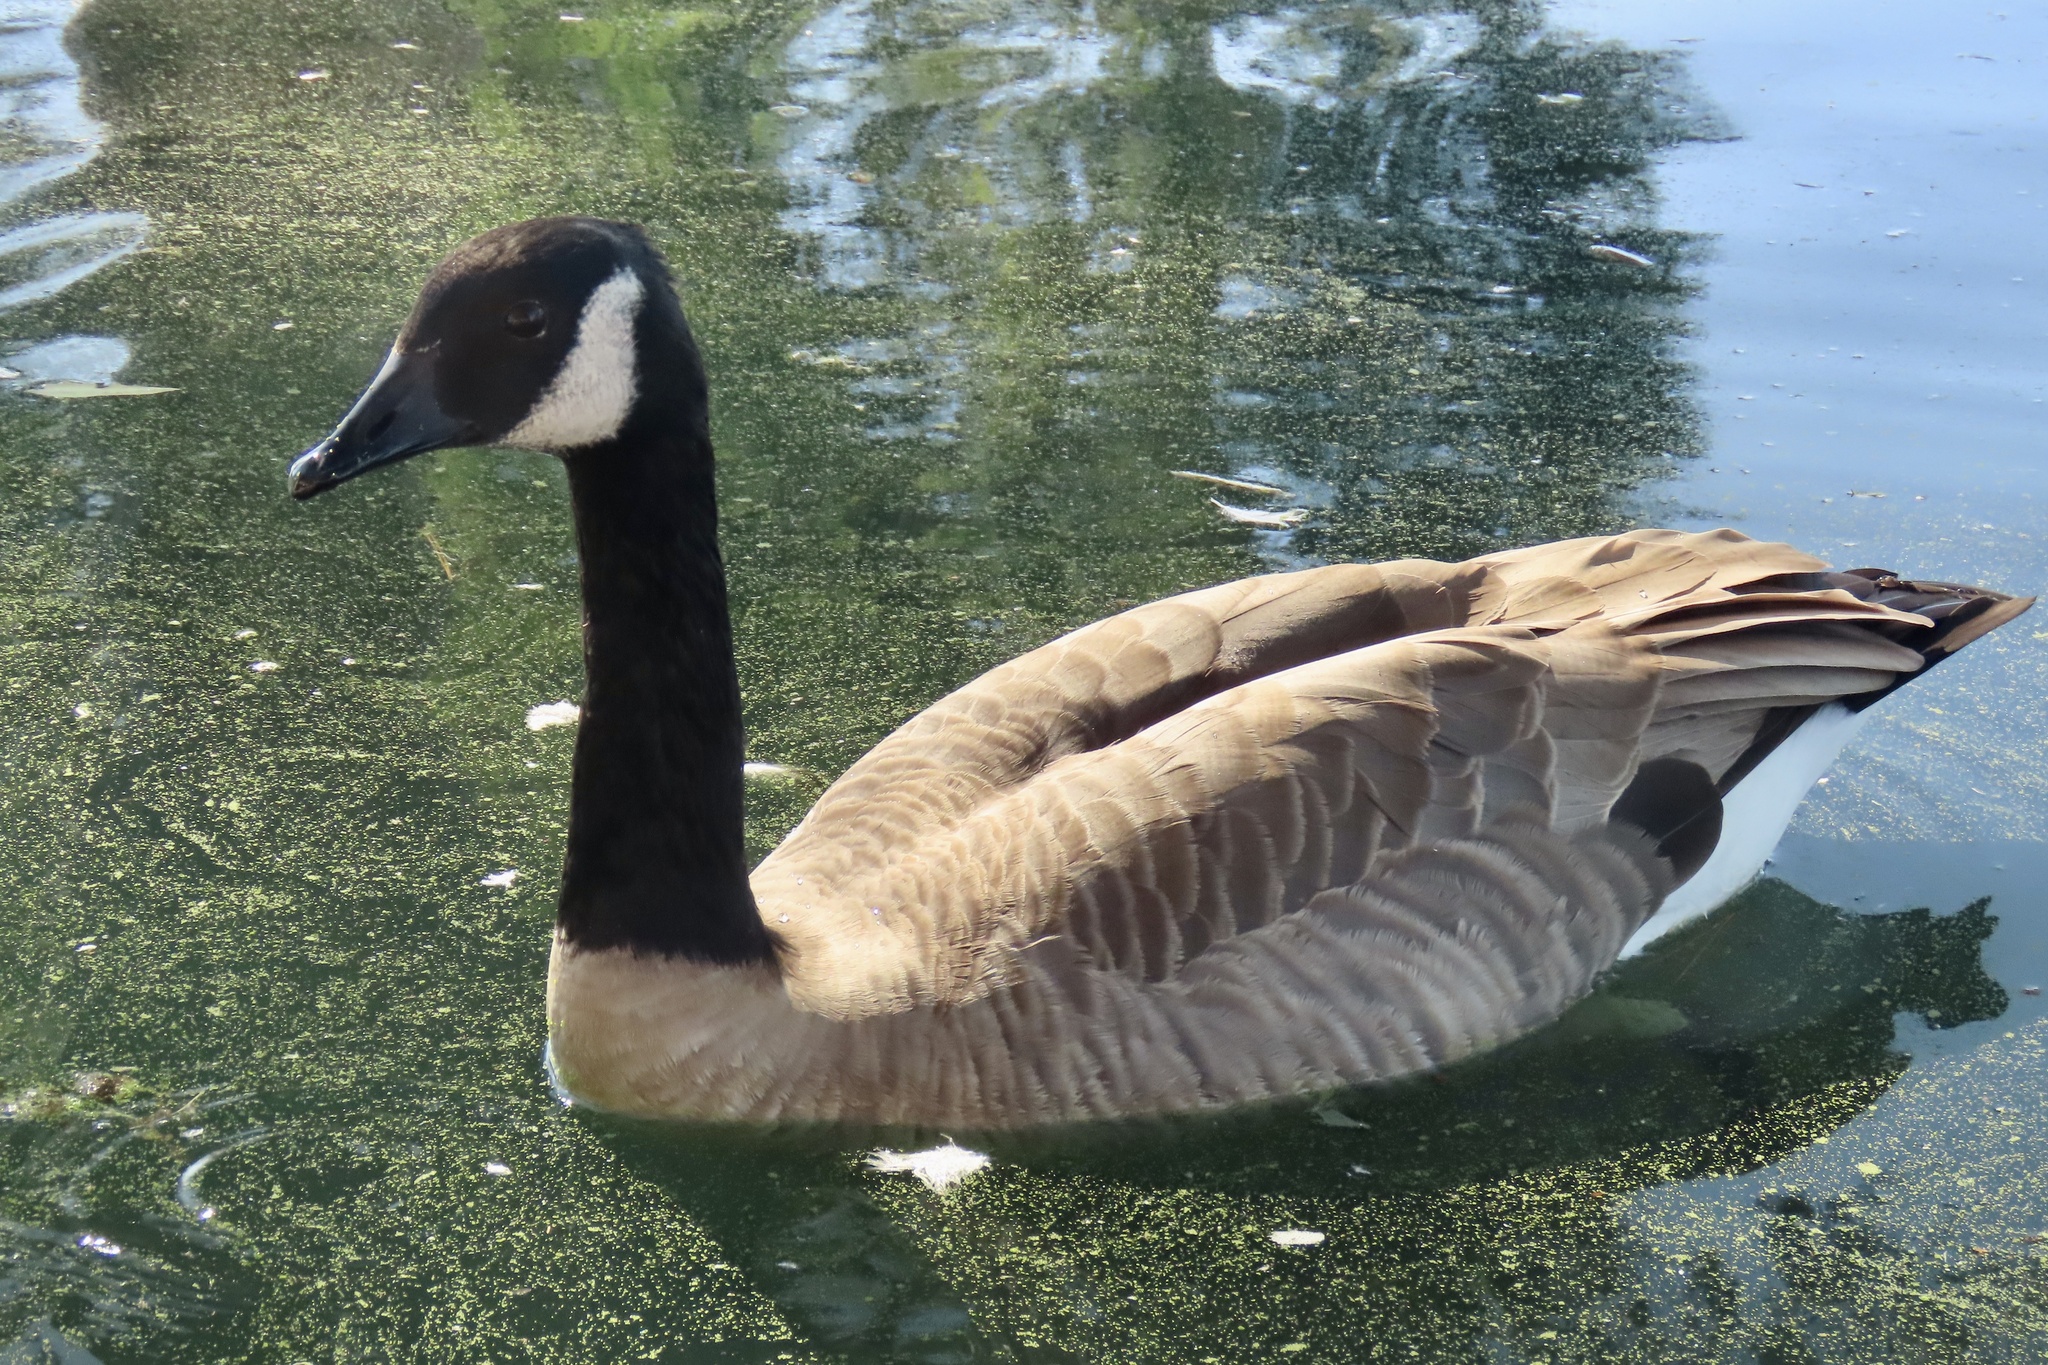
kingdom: Animalia
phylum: Chordata
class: Aves
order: Anseriformes
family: Anatidae
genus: Branta
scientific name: Branta canadensis
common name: Canada goose
